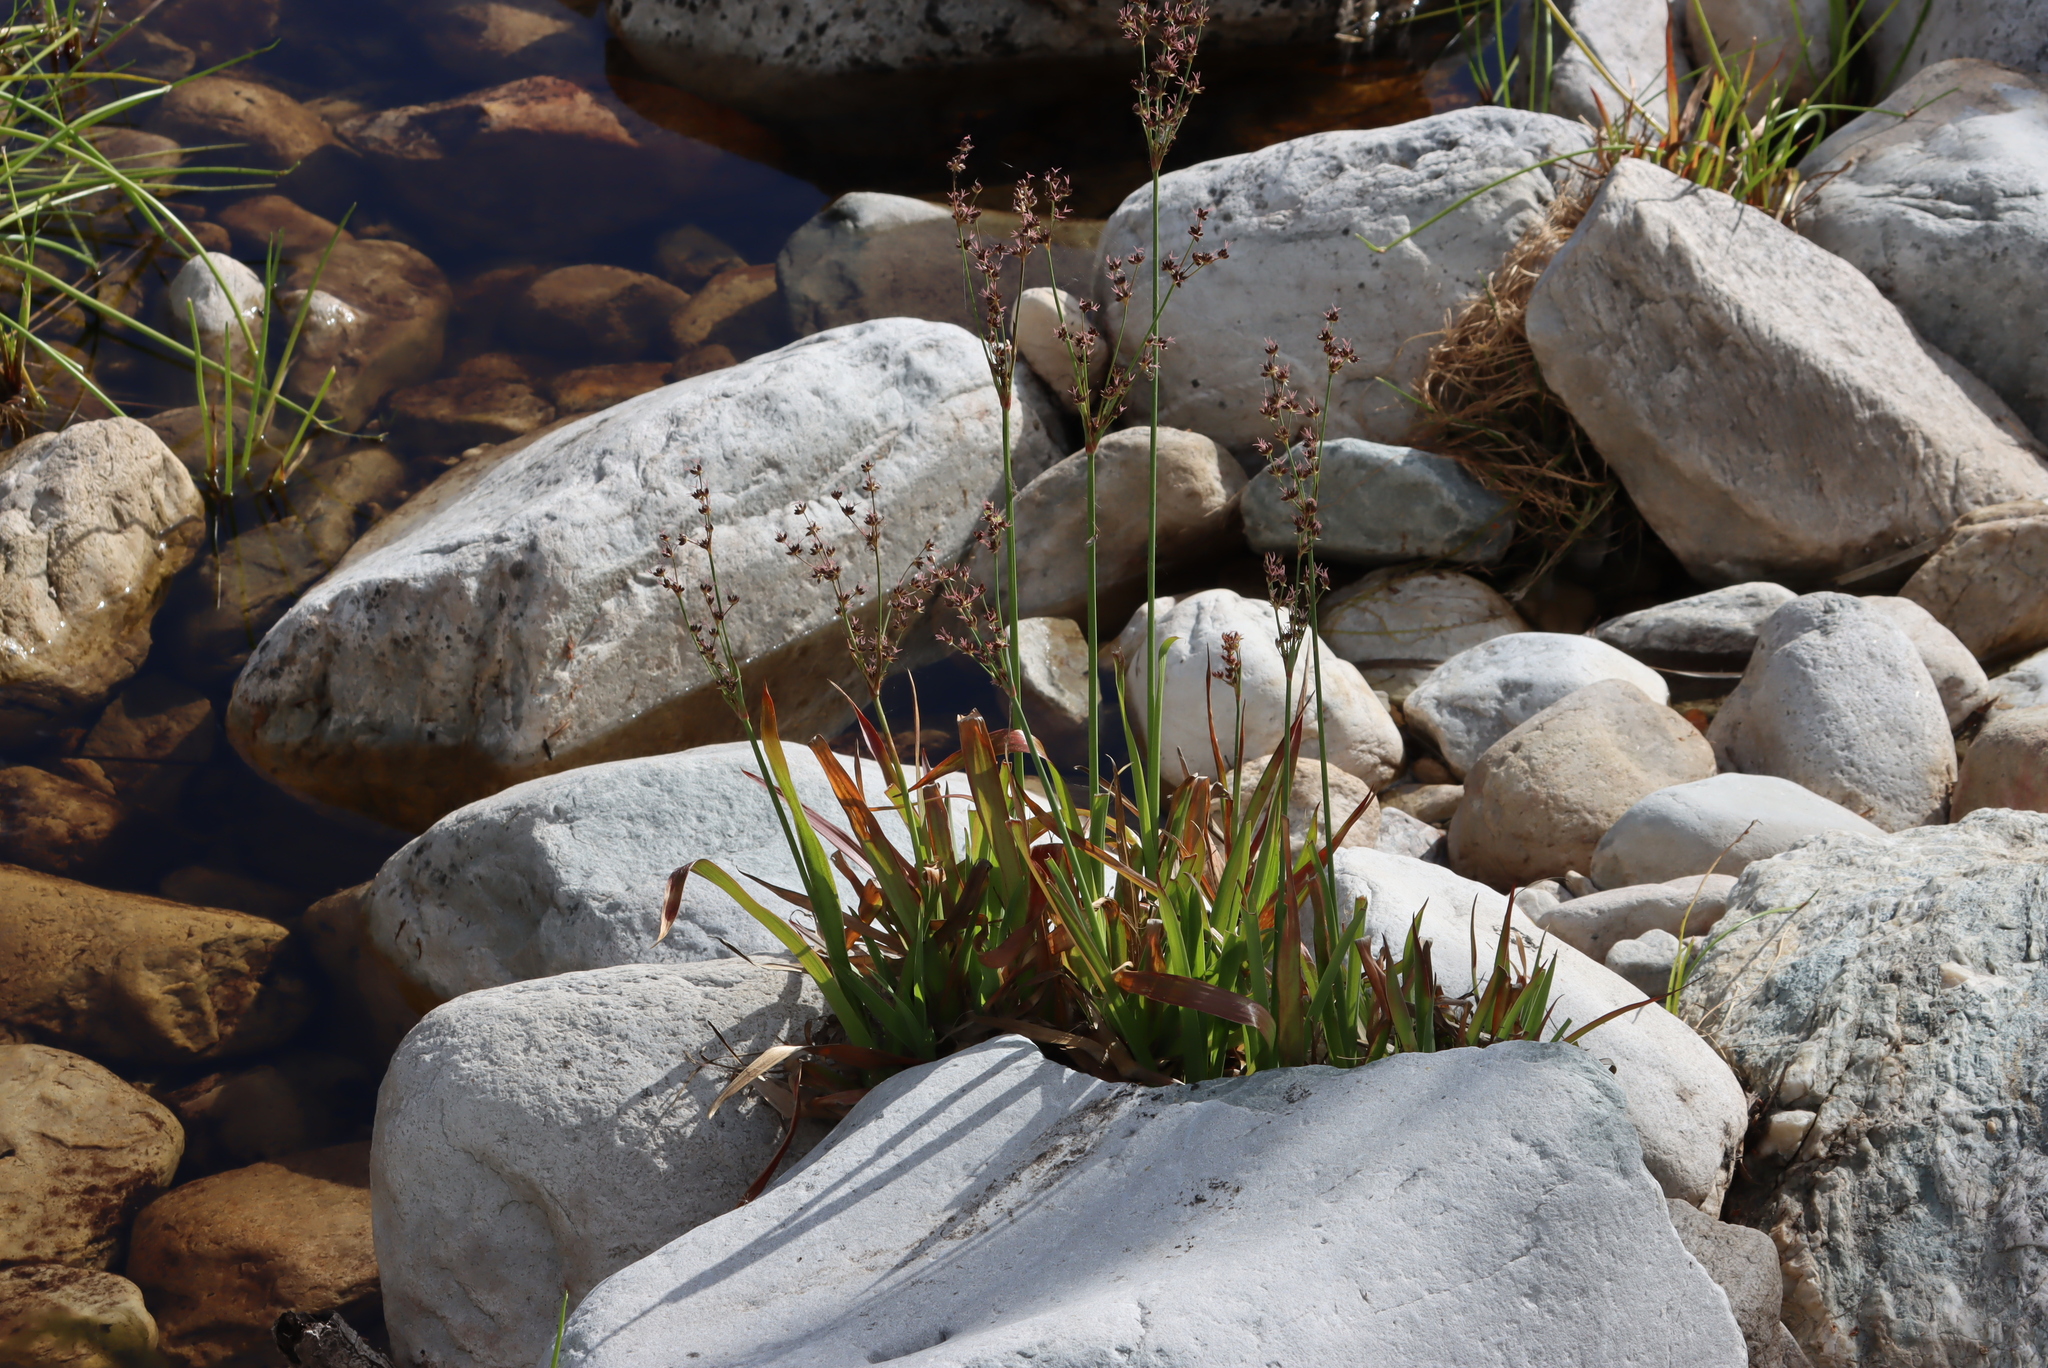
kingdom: Plantae
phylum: Tracheophyta
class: Liliopsida
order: Poales
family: Juncaceae
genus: Juncus
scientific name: Juncus lomatophyllus
